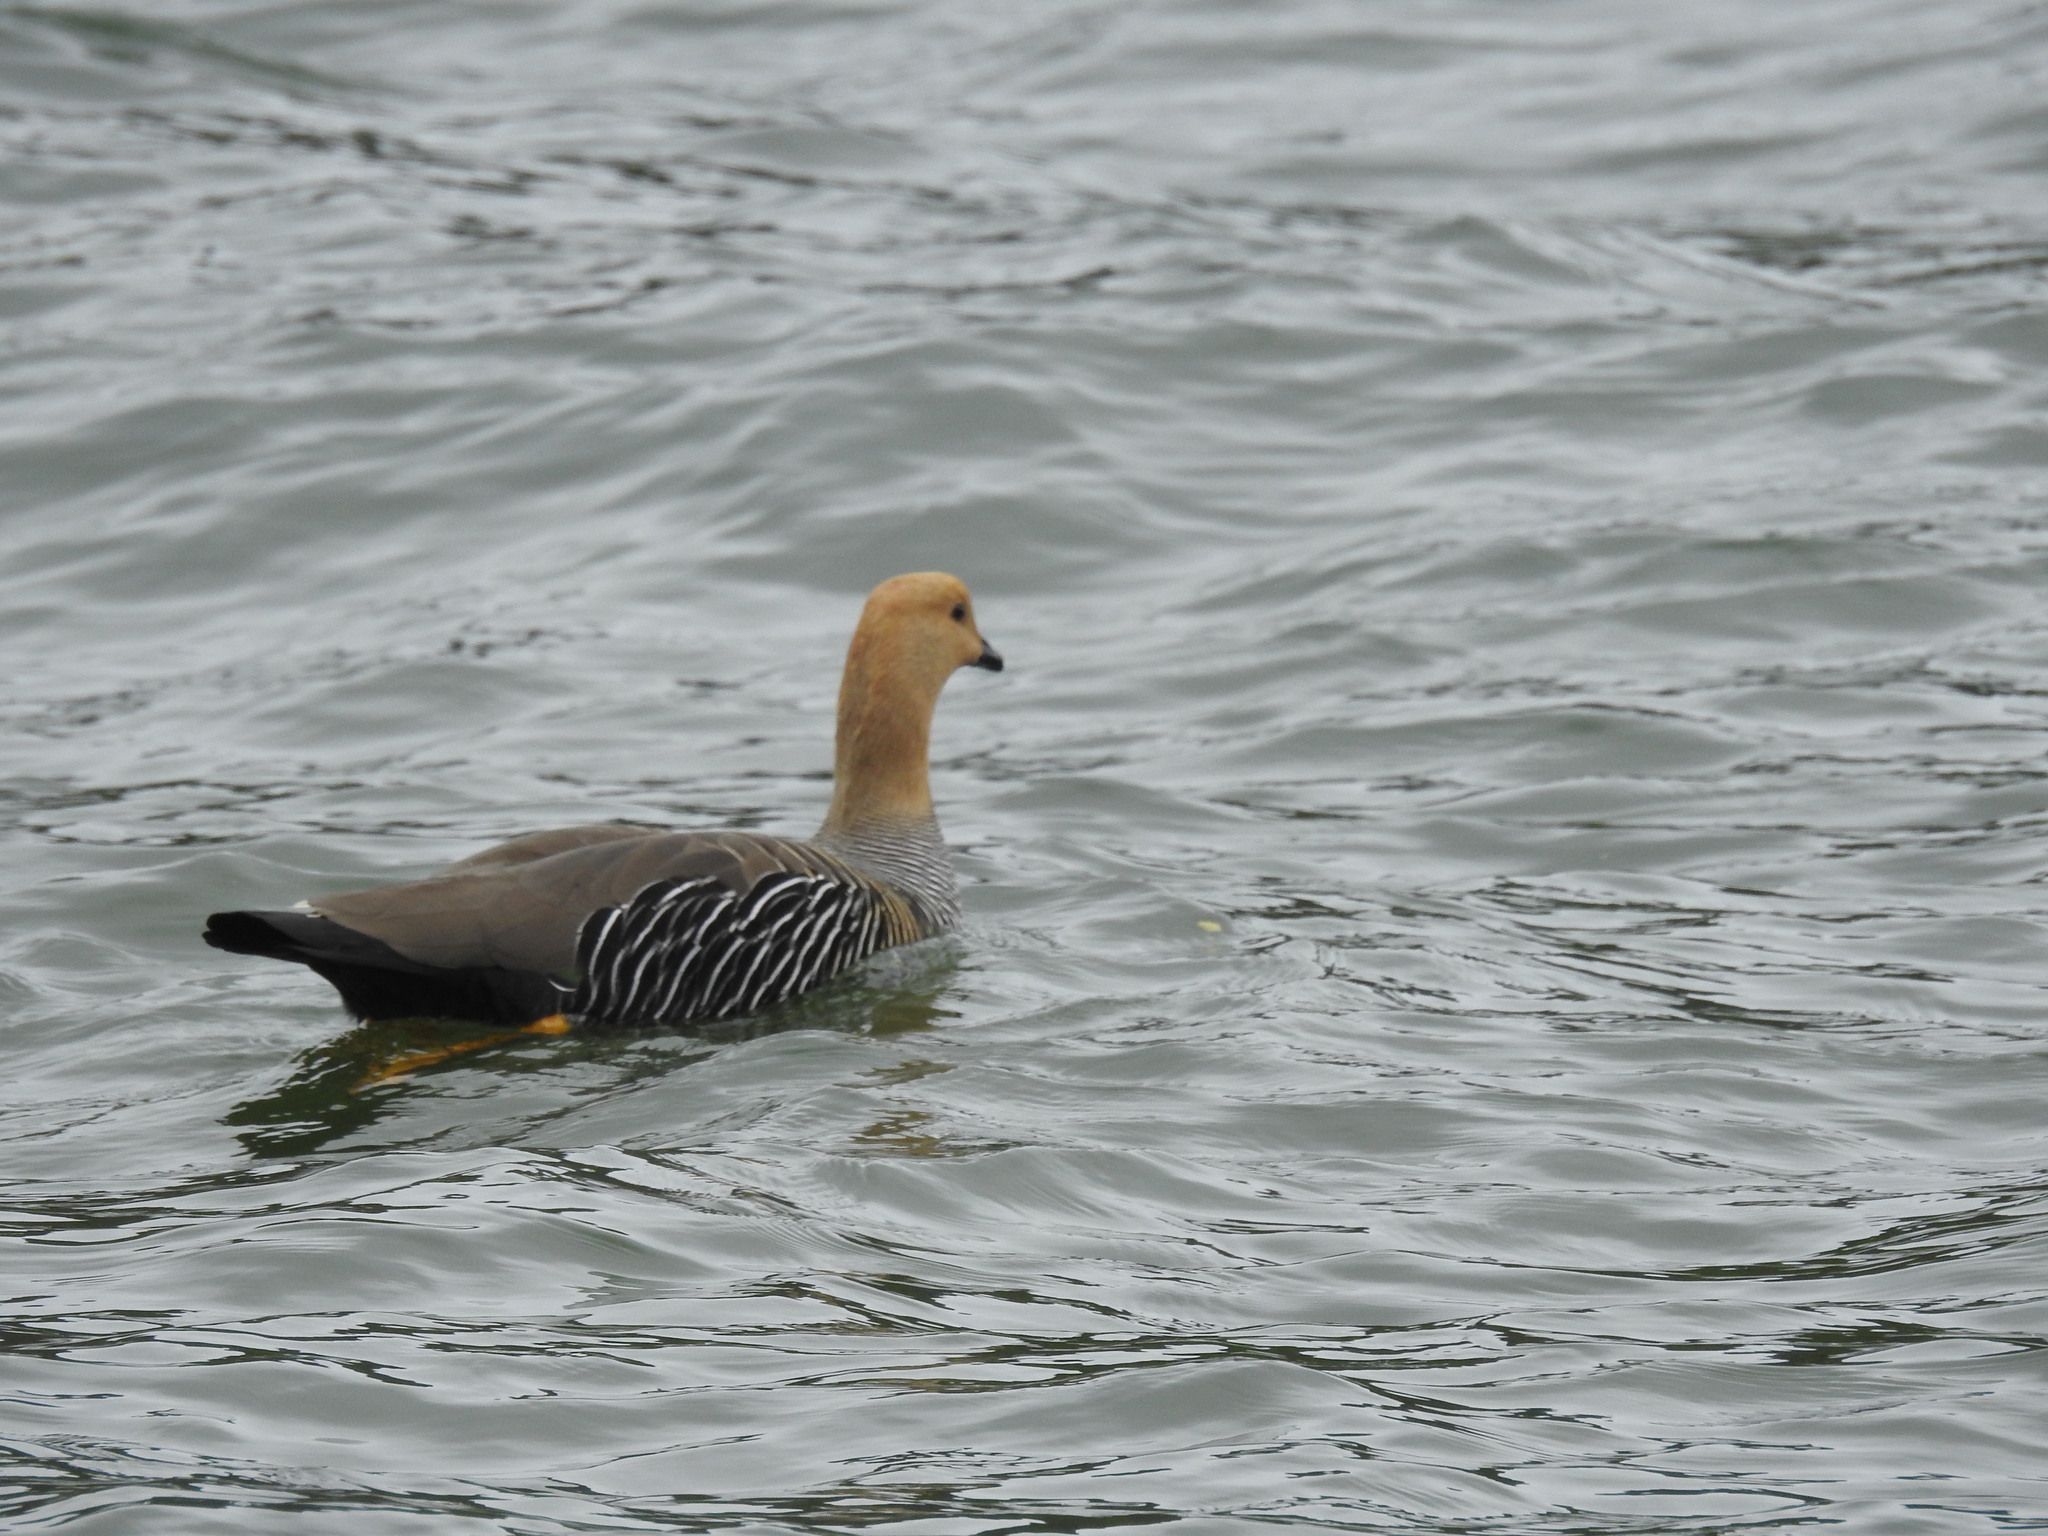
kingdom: Animalia
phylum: Chordata
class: Aves
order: Anseriformes
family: Anatidae
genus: Chloephaga
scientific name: Chloephaga picta
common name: Upland goose
